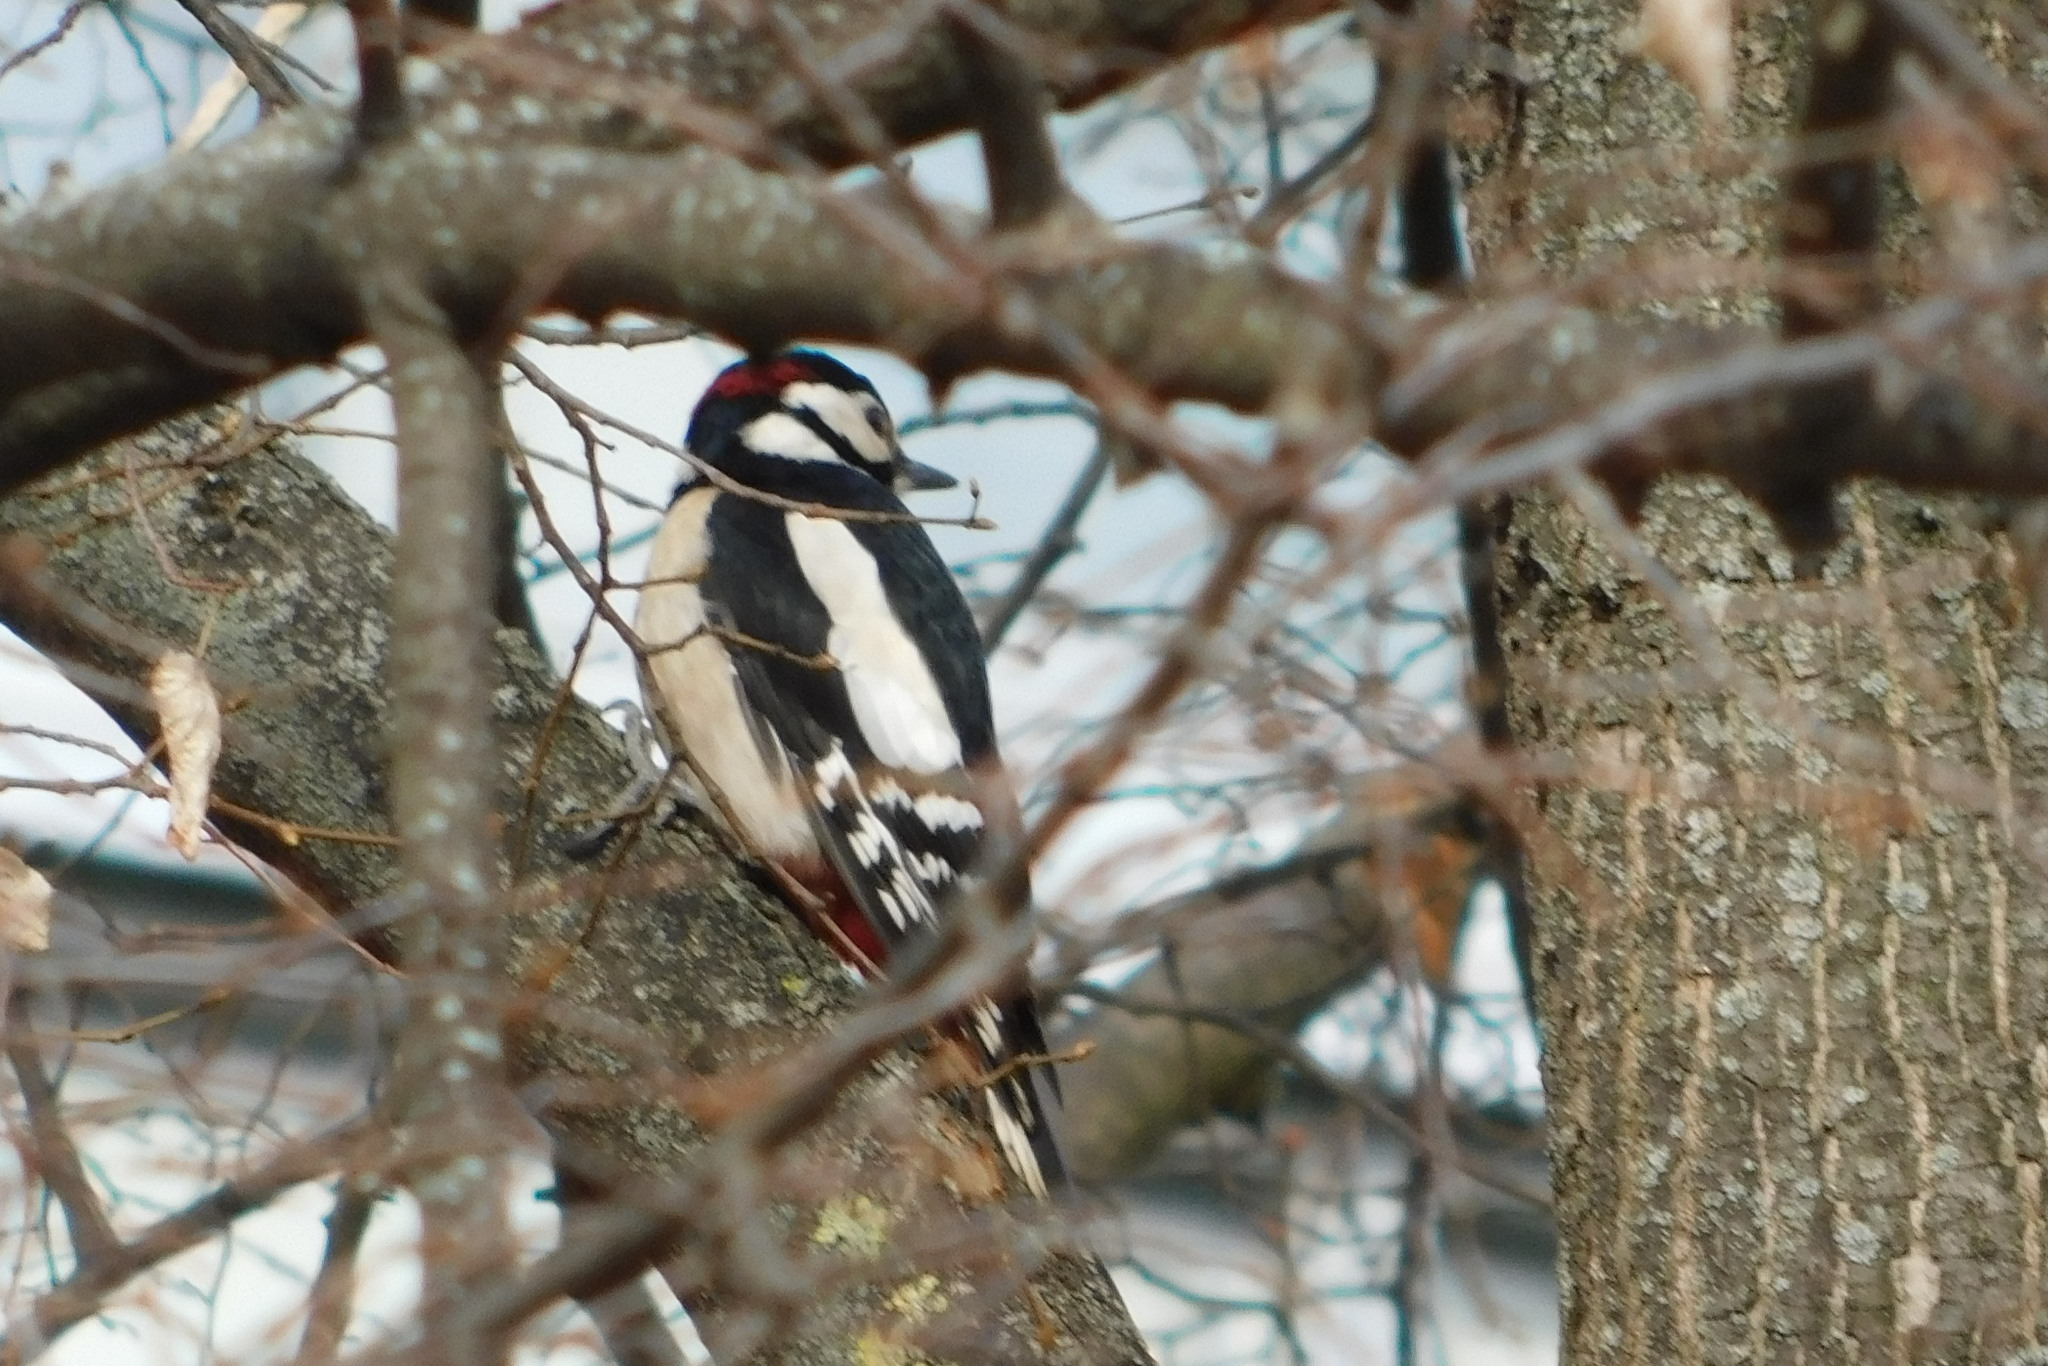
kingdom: Animalia
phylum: Chordata
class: Aves
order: Piciformes
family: Picidae
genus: Dendrocopos
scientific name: Dendrocopos major
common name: Great spotted woodpecker
